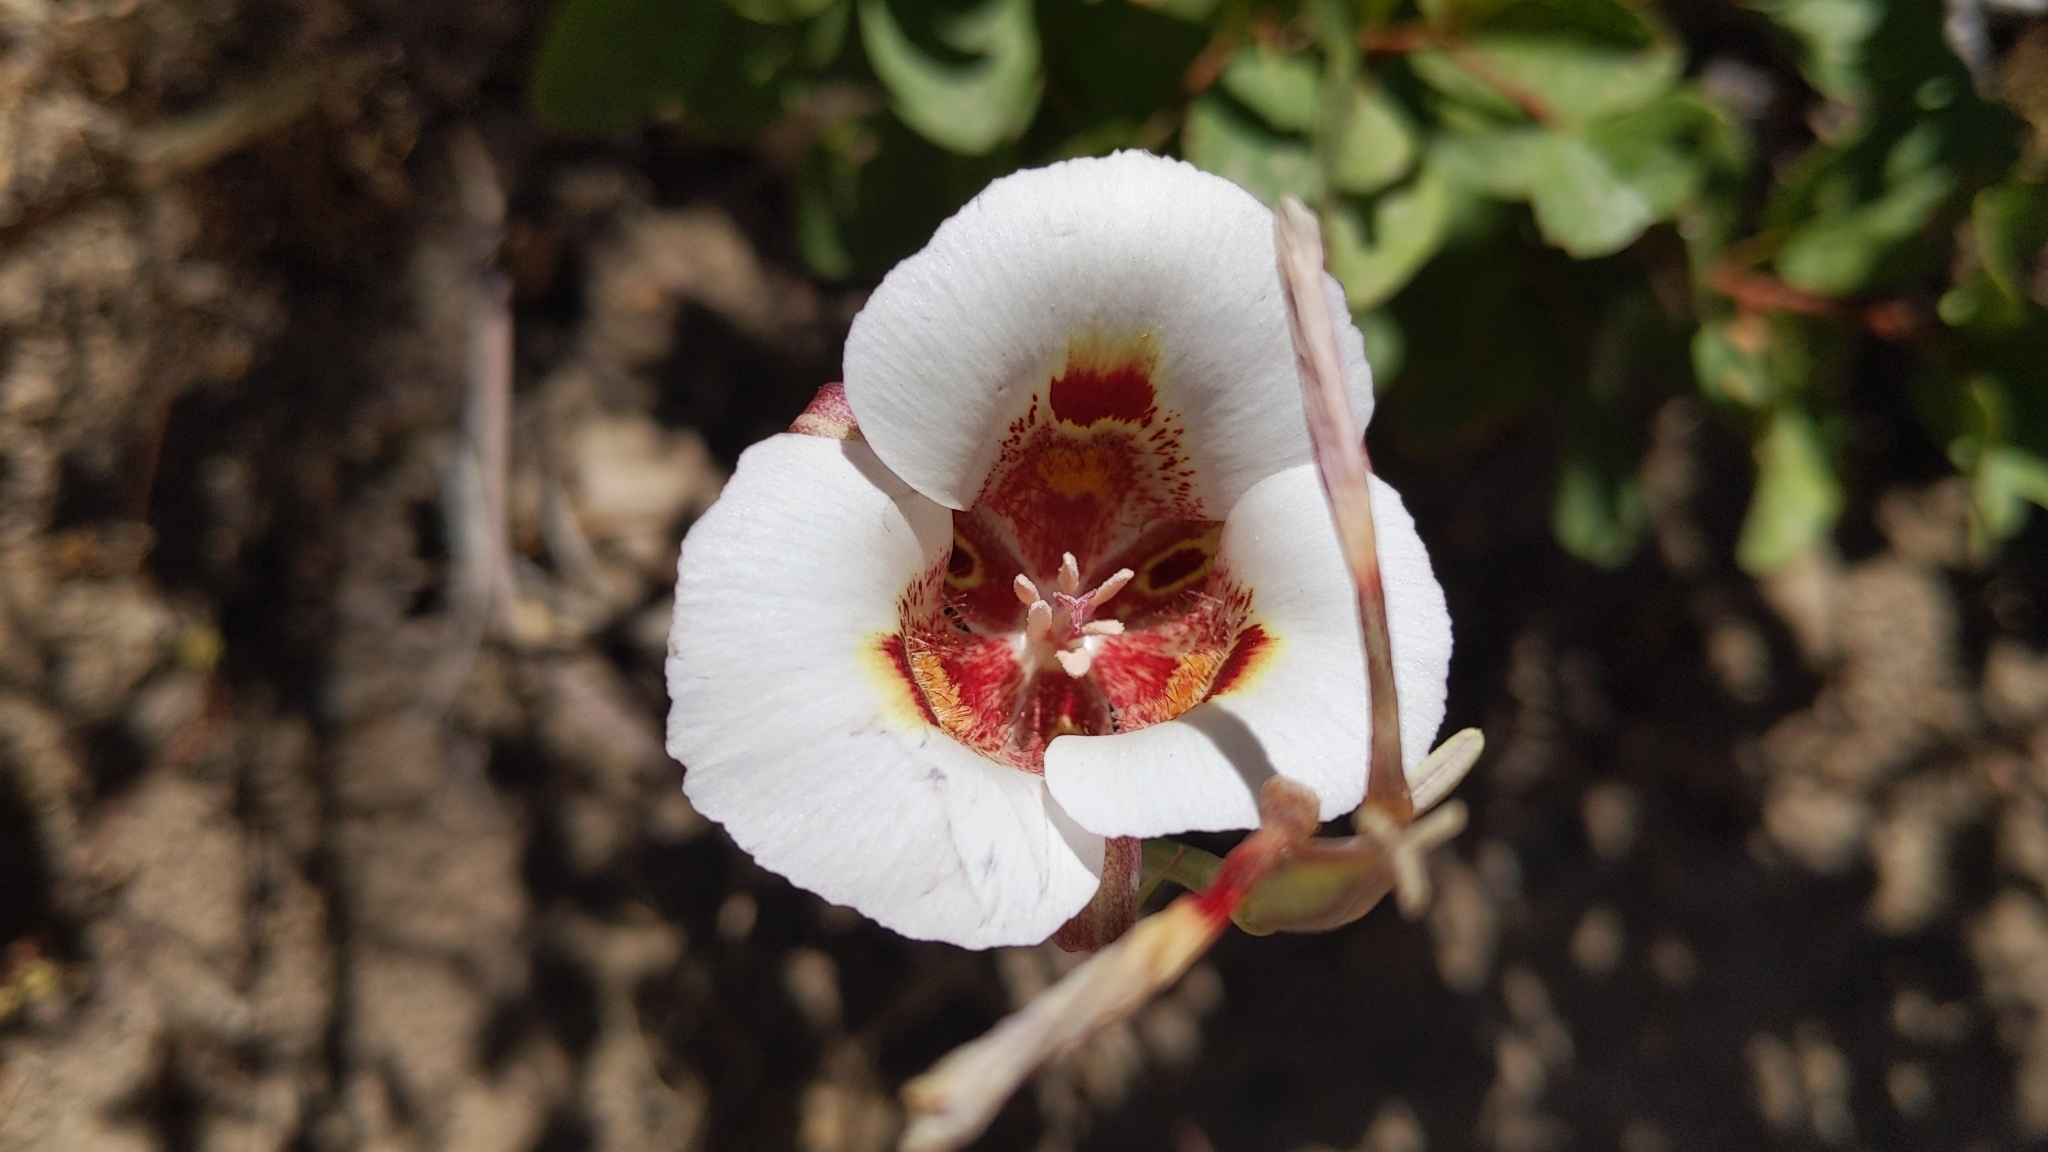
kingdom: Plantae
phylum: Tracheophyta
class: Liliopsida
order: Liliales
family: Liliaceae
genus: Calochortus
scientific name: Calochortus venustus
